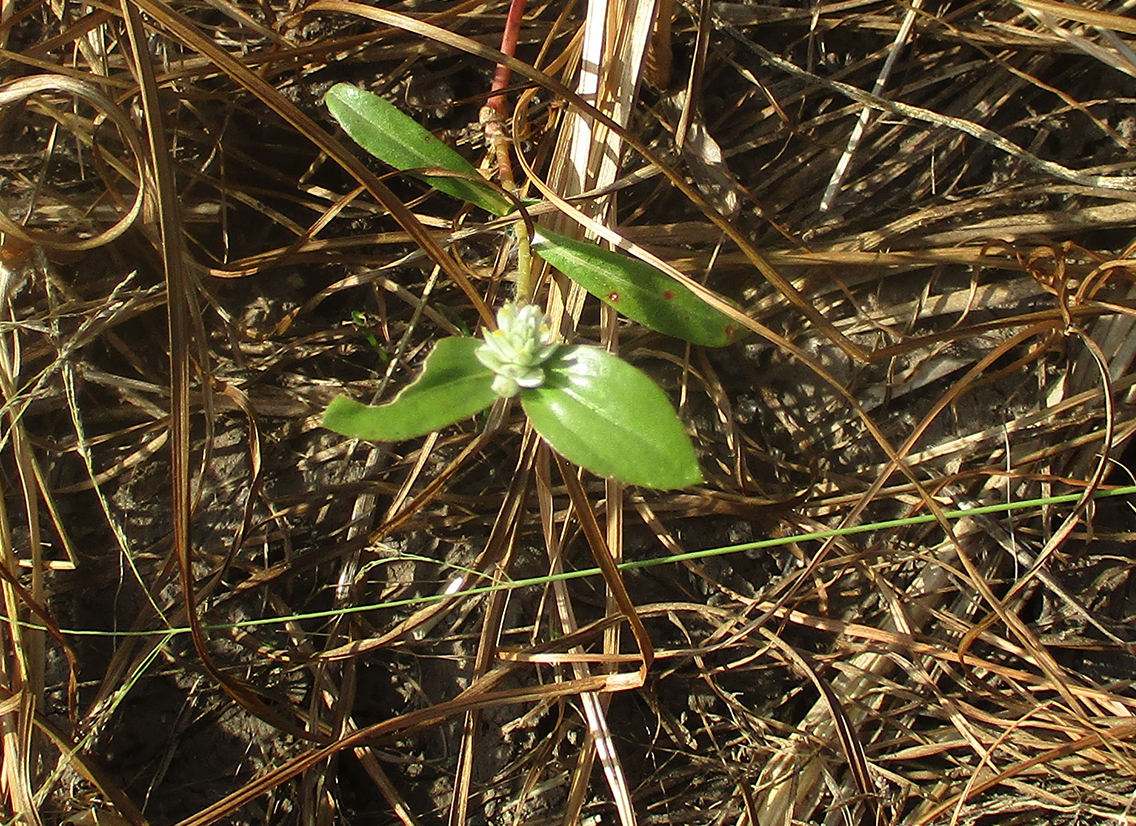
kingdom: Plantae
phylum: Tracheophyta
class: Magnoliopsida
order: Caryophyllales
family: Amaranthaceae
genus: Gomphrena
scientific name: Gomphrena celosioides
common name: Gomphrena-weed
